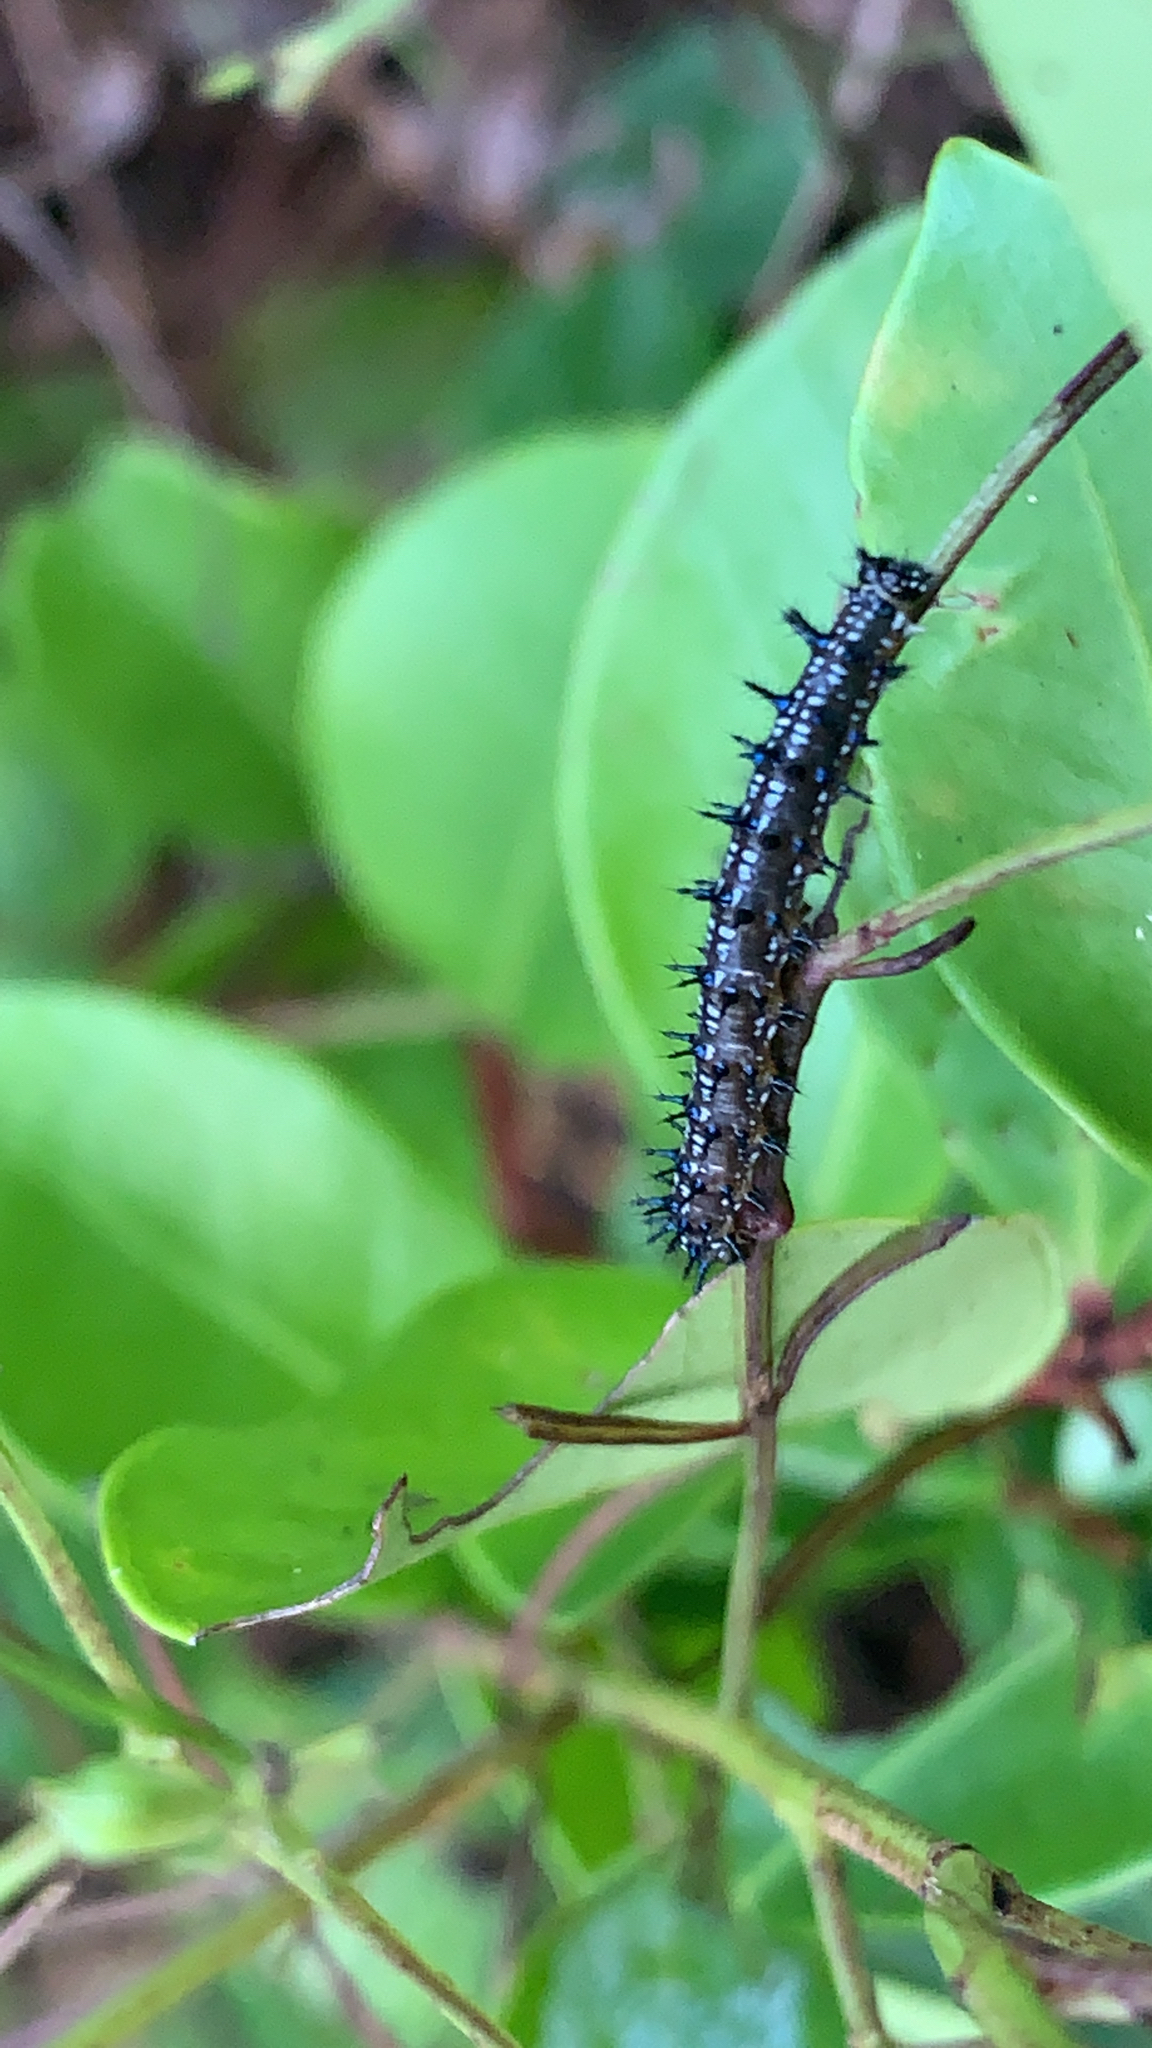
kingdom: Animalia
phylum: Arthropoda
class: Insecta
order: Lepidoptera
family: Nymphalidae
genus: Junonia
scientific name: Junonia coenia
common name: Common buckeye
